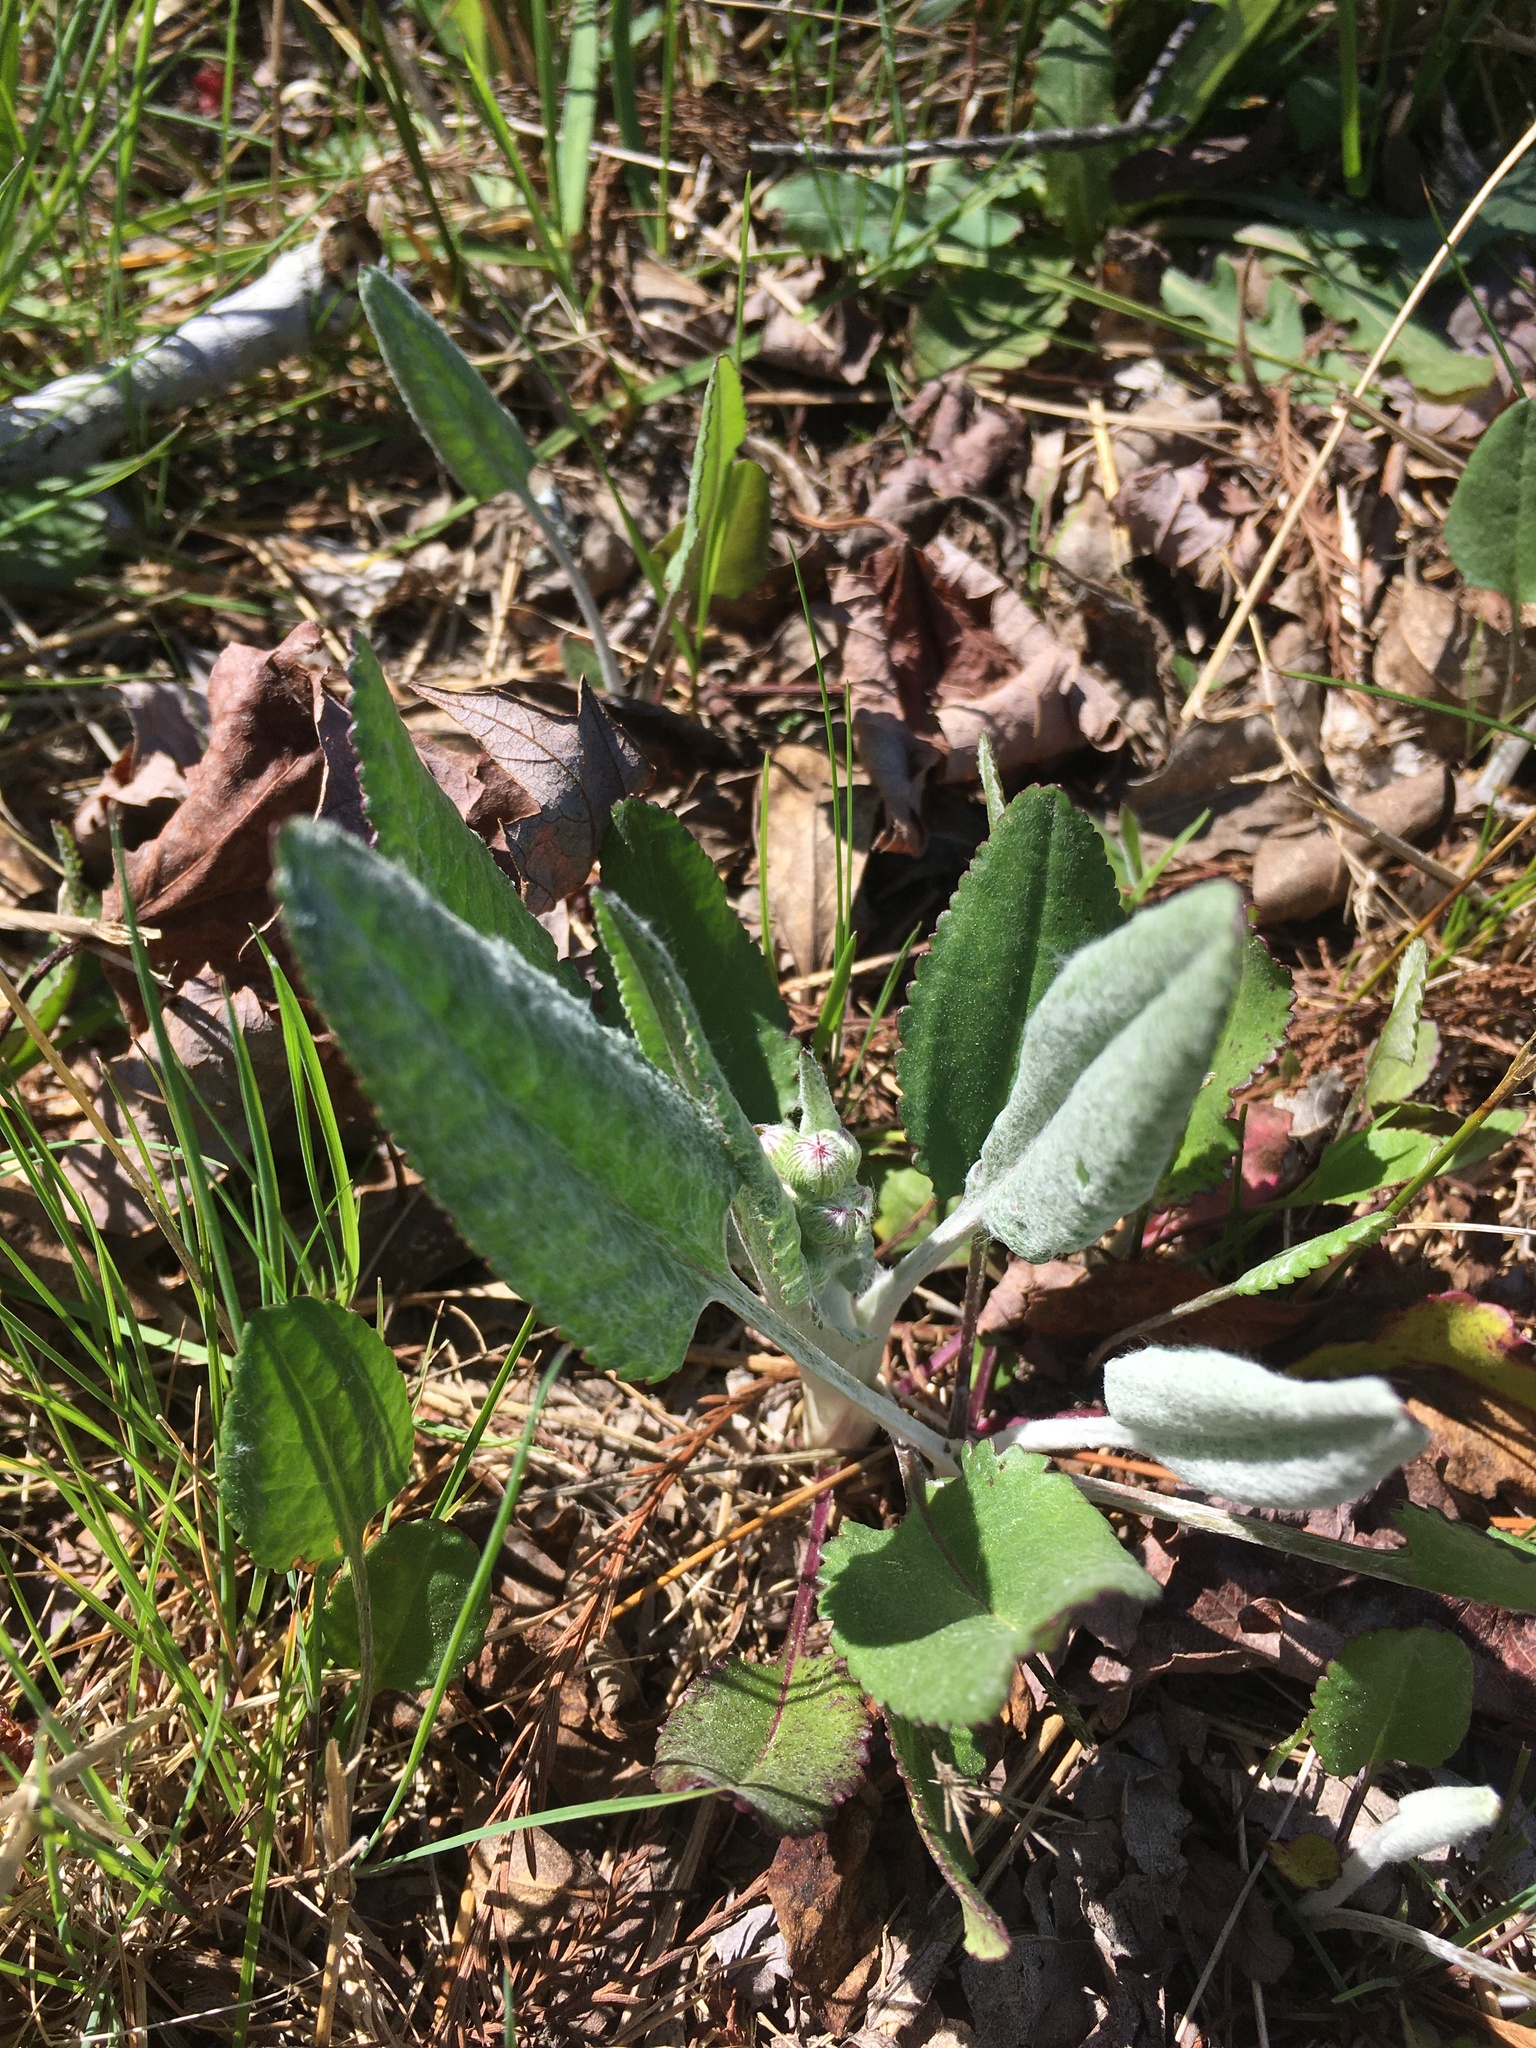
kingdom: Plantae
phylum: Tracheophyta
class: Magnoliopsida
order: Asterales
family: Asteraceae
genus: Packera
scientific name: Packera dubia
